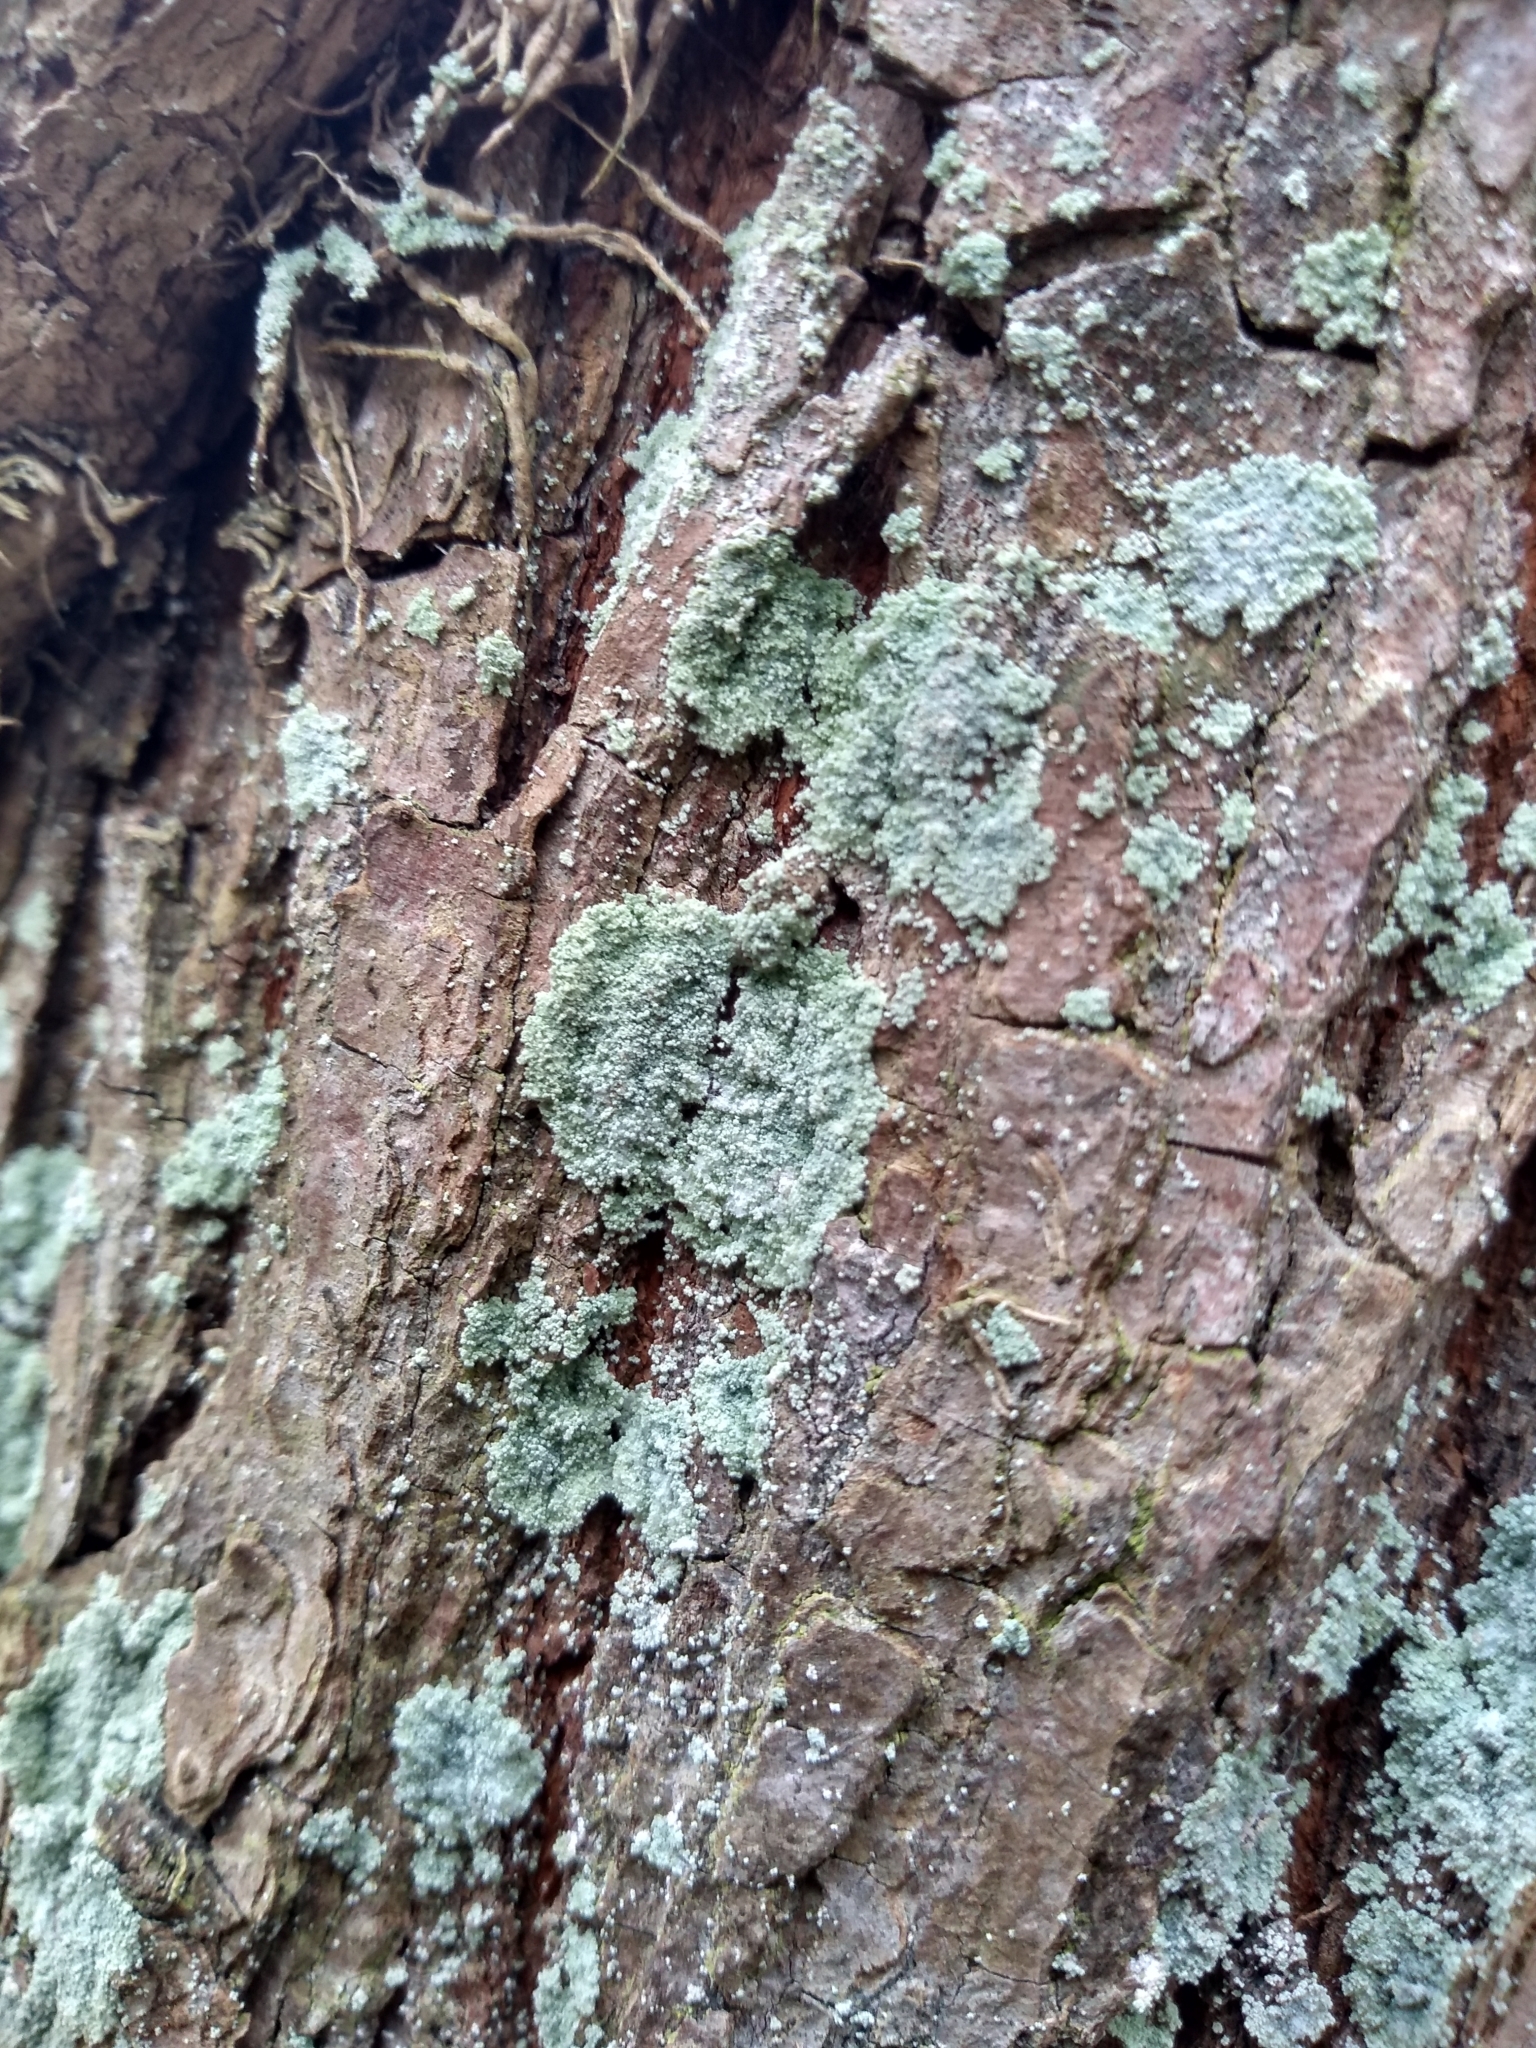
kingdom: Fungi
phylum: Ascomycota
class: Lecanoromycetes
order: Lecanorales
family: Stereocaulaceae
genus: Lepraria
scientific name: Lepraria
